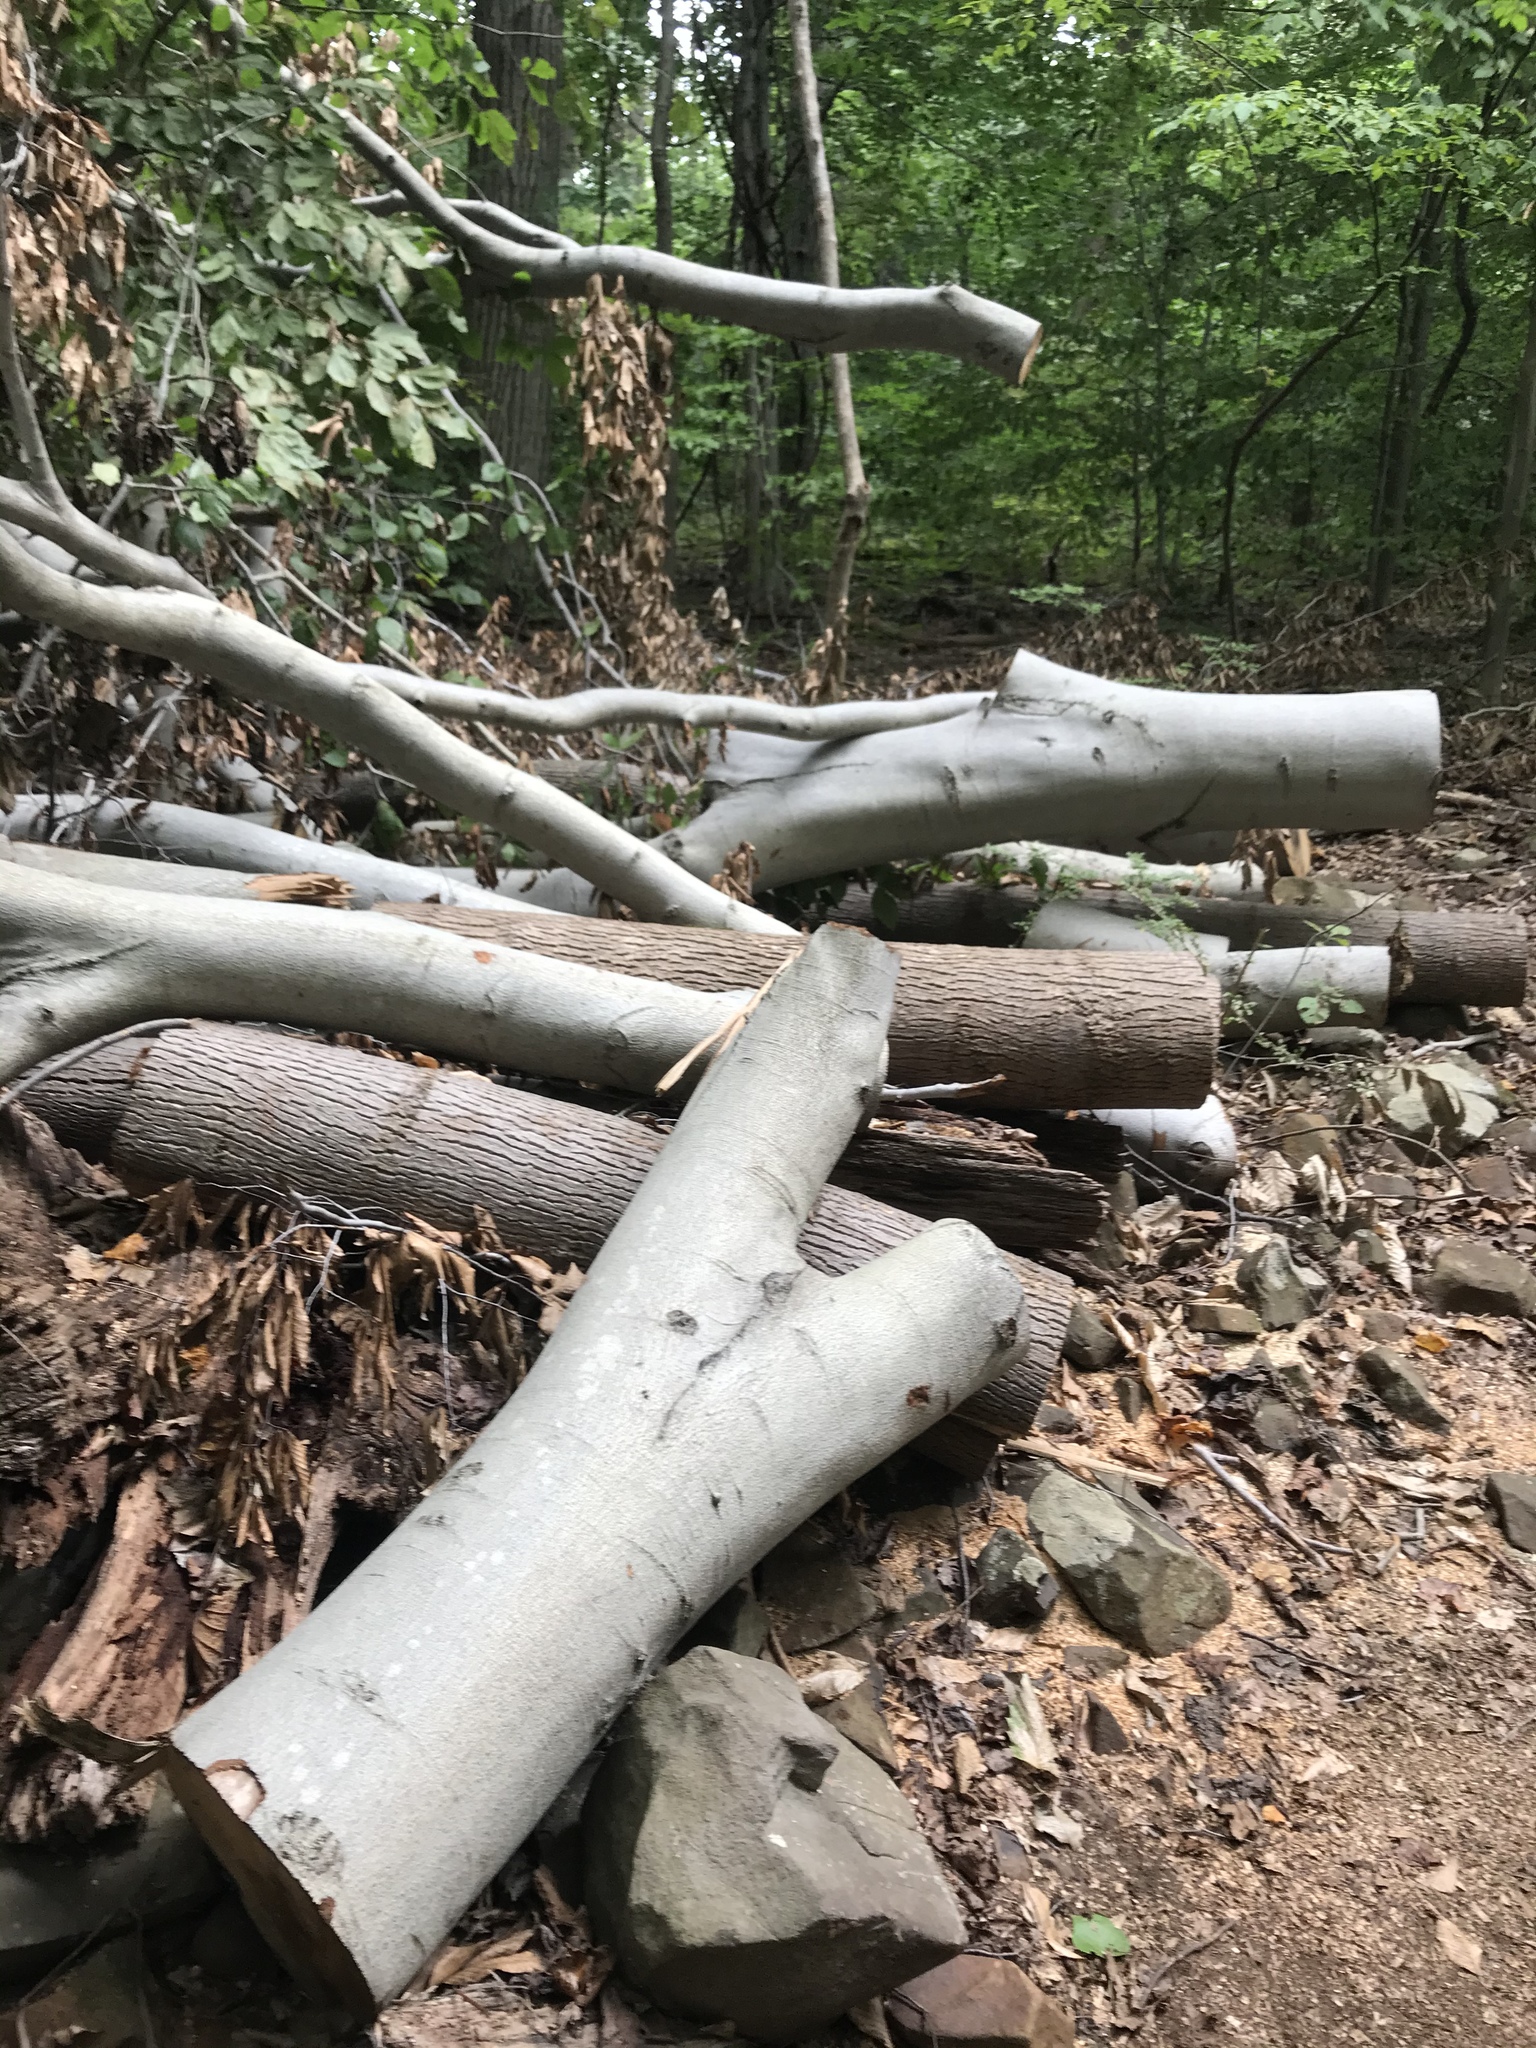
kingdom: Plantae
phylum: Tracheophyta
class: Magnoliopsida
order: Fagales
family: Fagaceae
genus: Fagus
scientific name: Fagus grandifolia
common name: American beech
